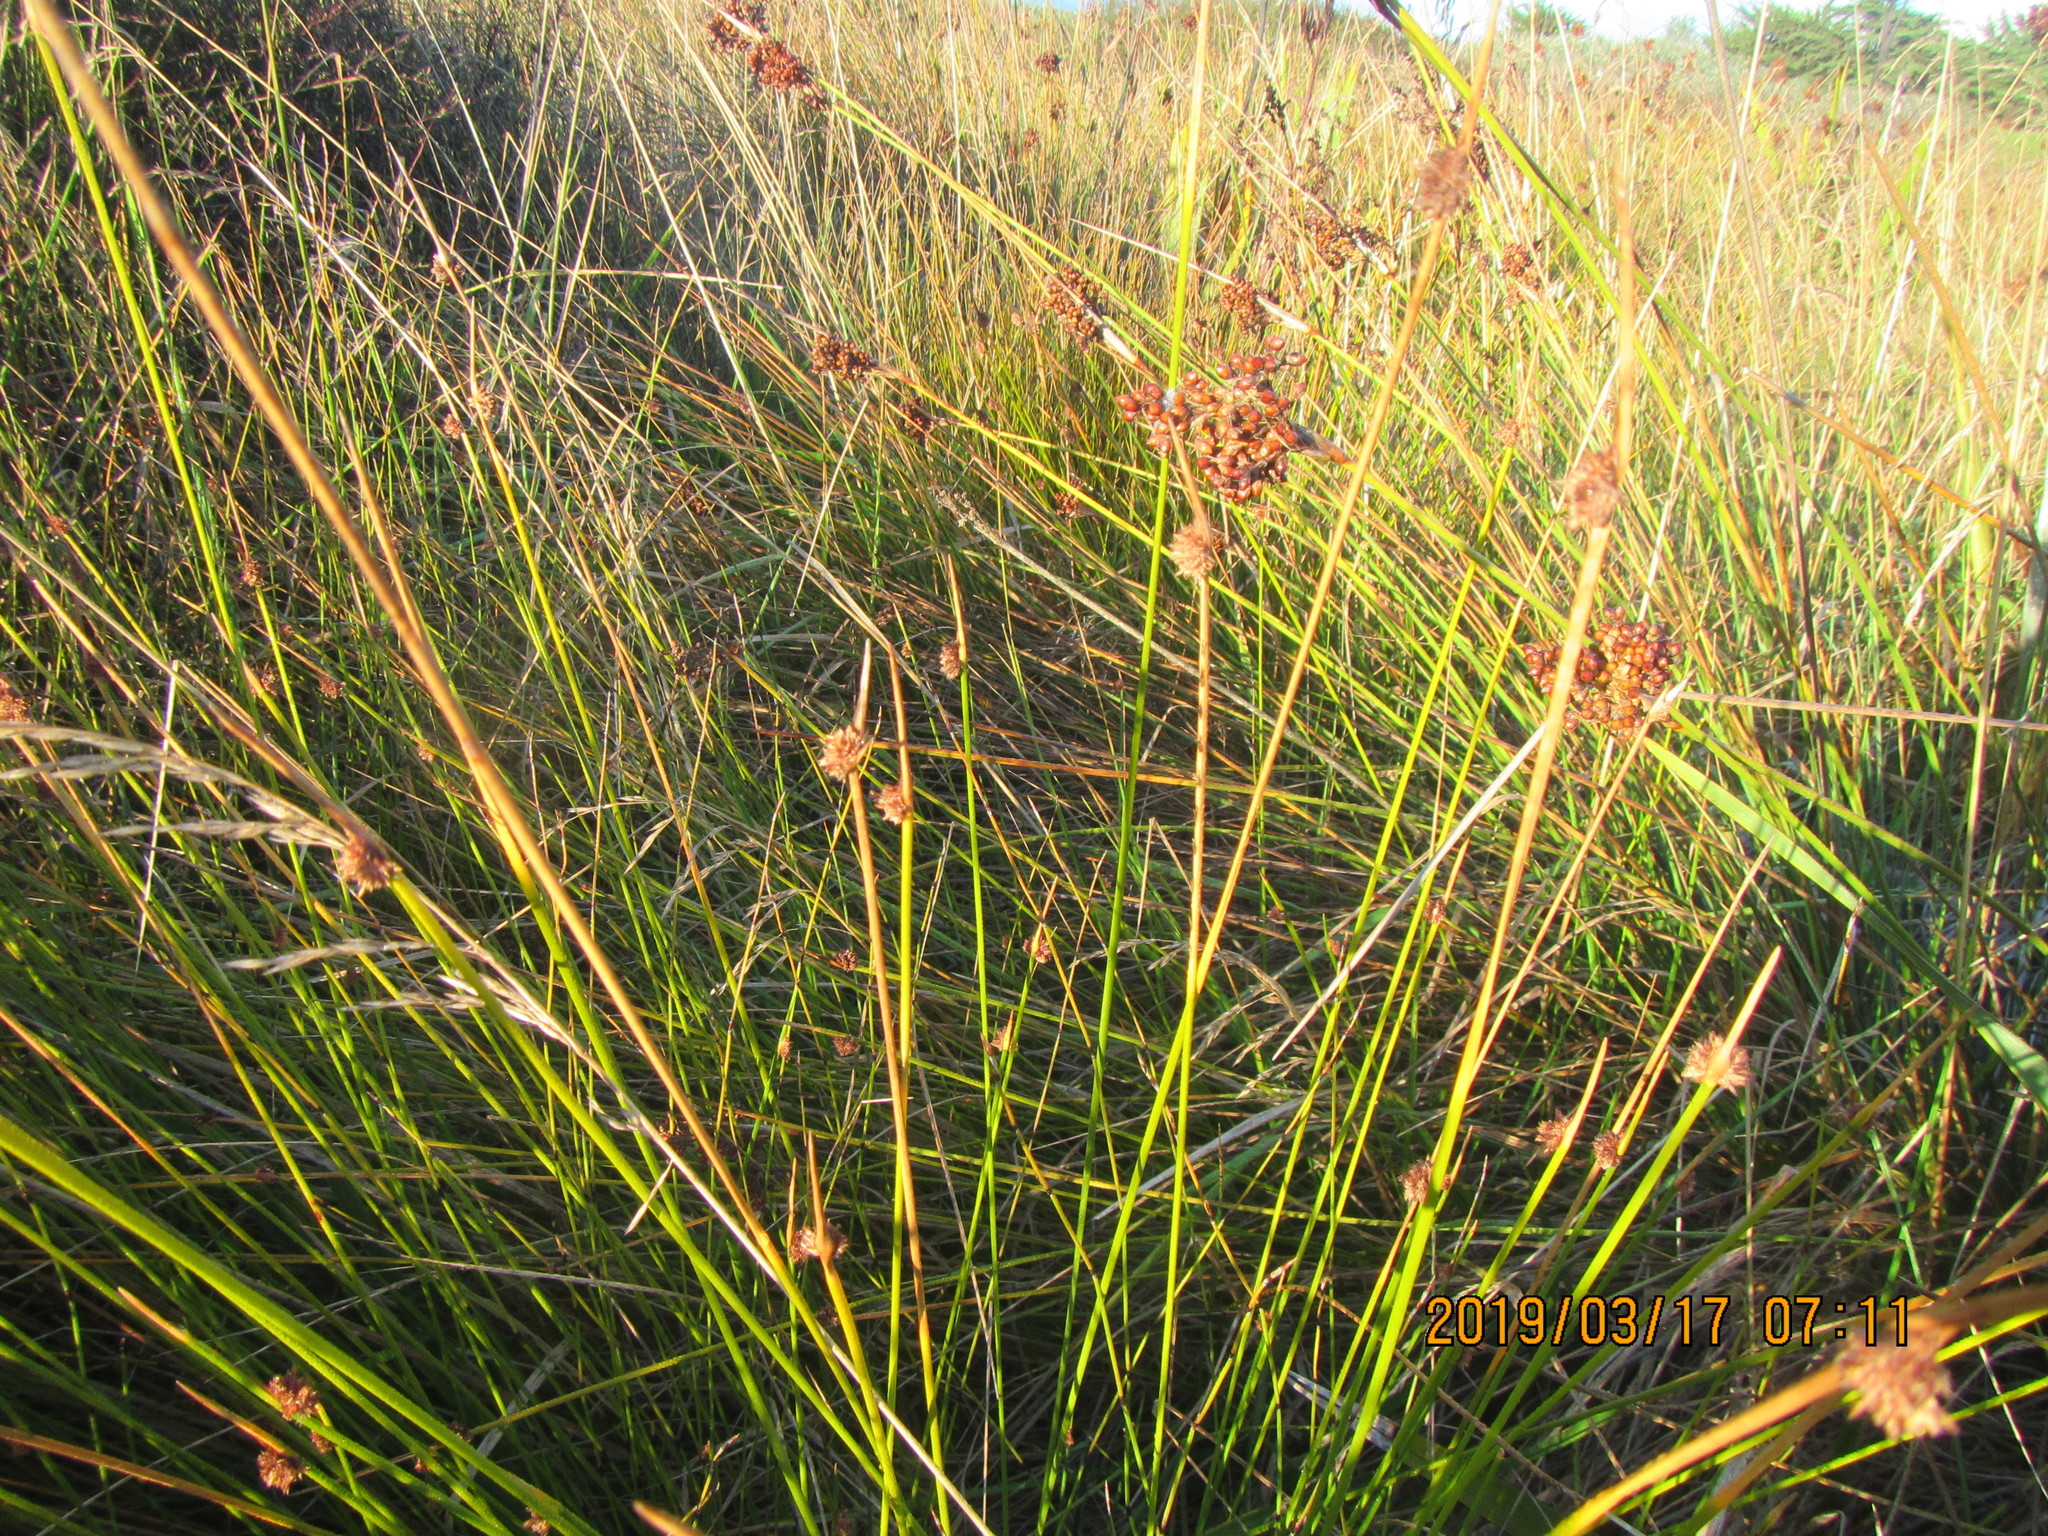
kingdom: Plantae
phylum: Tracheophyta
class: Liliopsida
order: Poales
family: Cyperaceae
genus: Ficinia
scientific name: Ficinia nodosa
